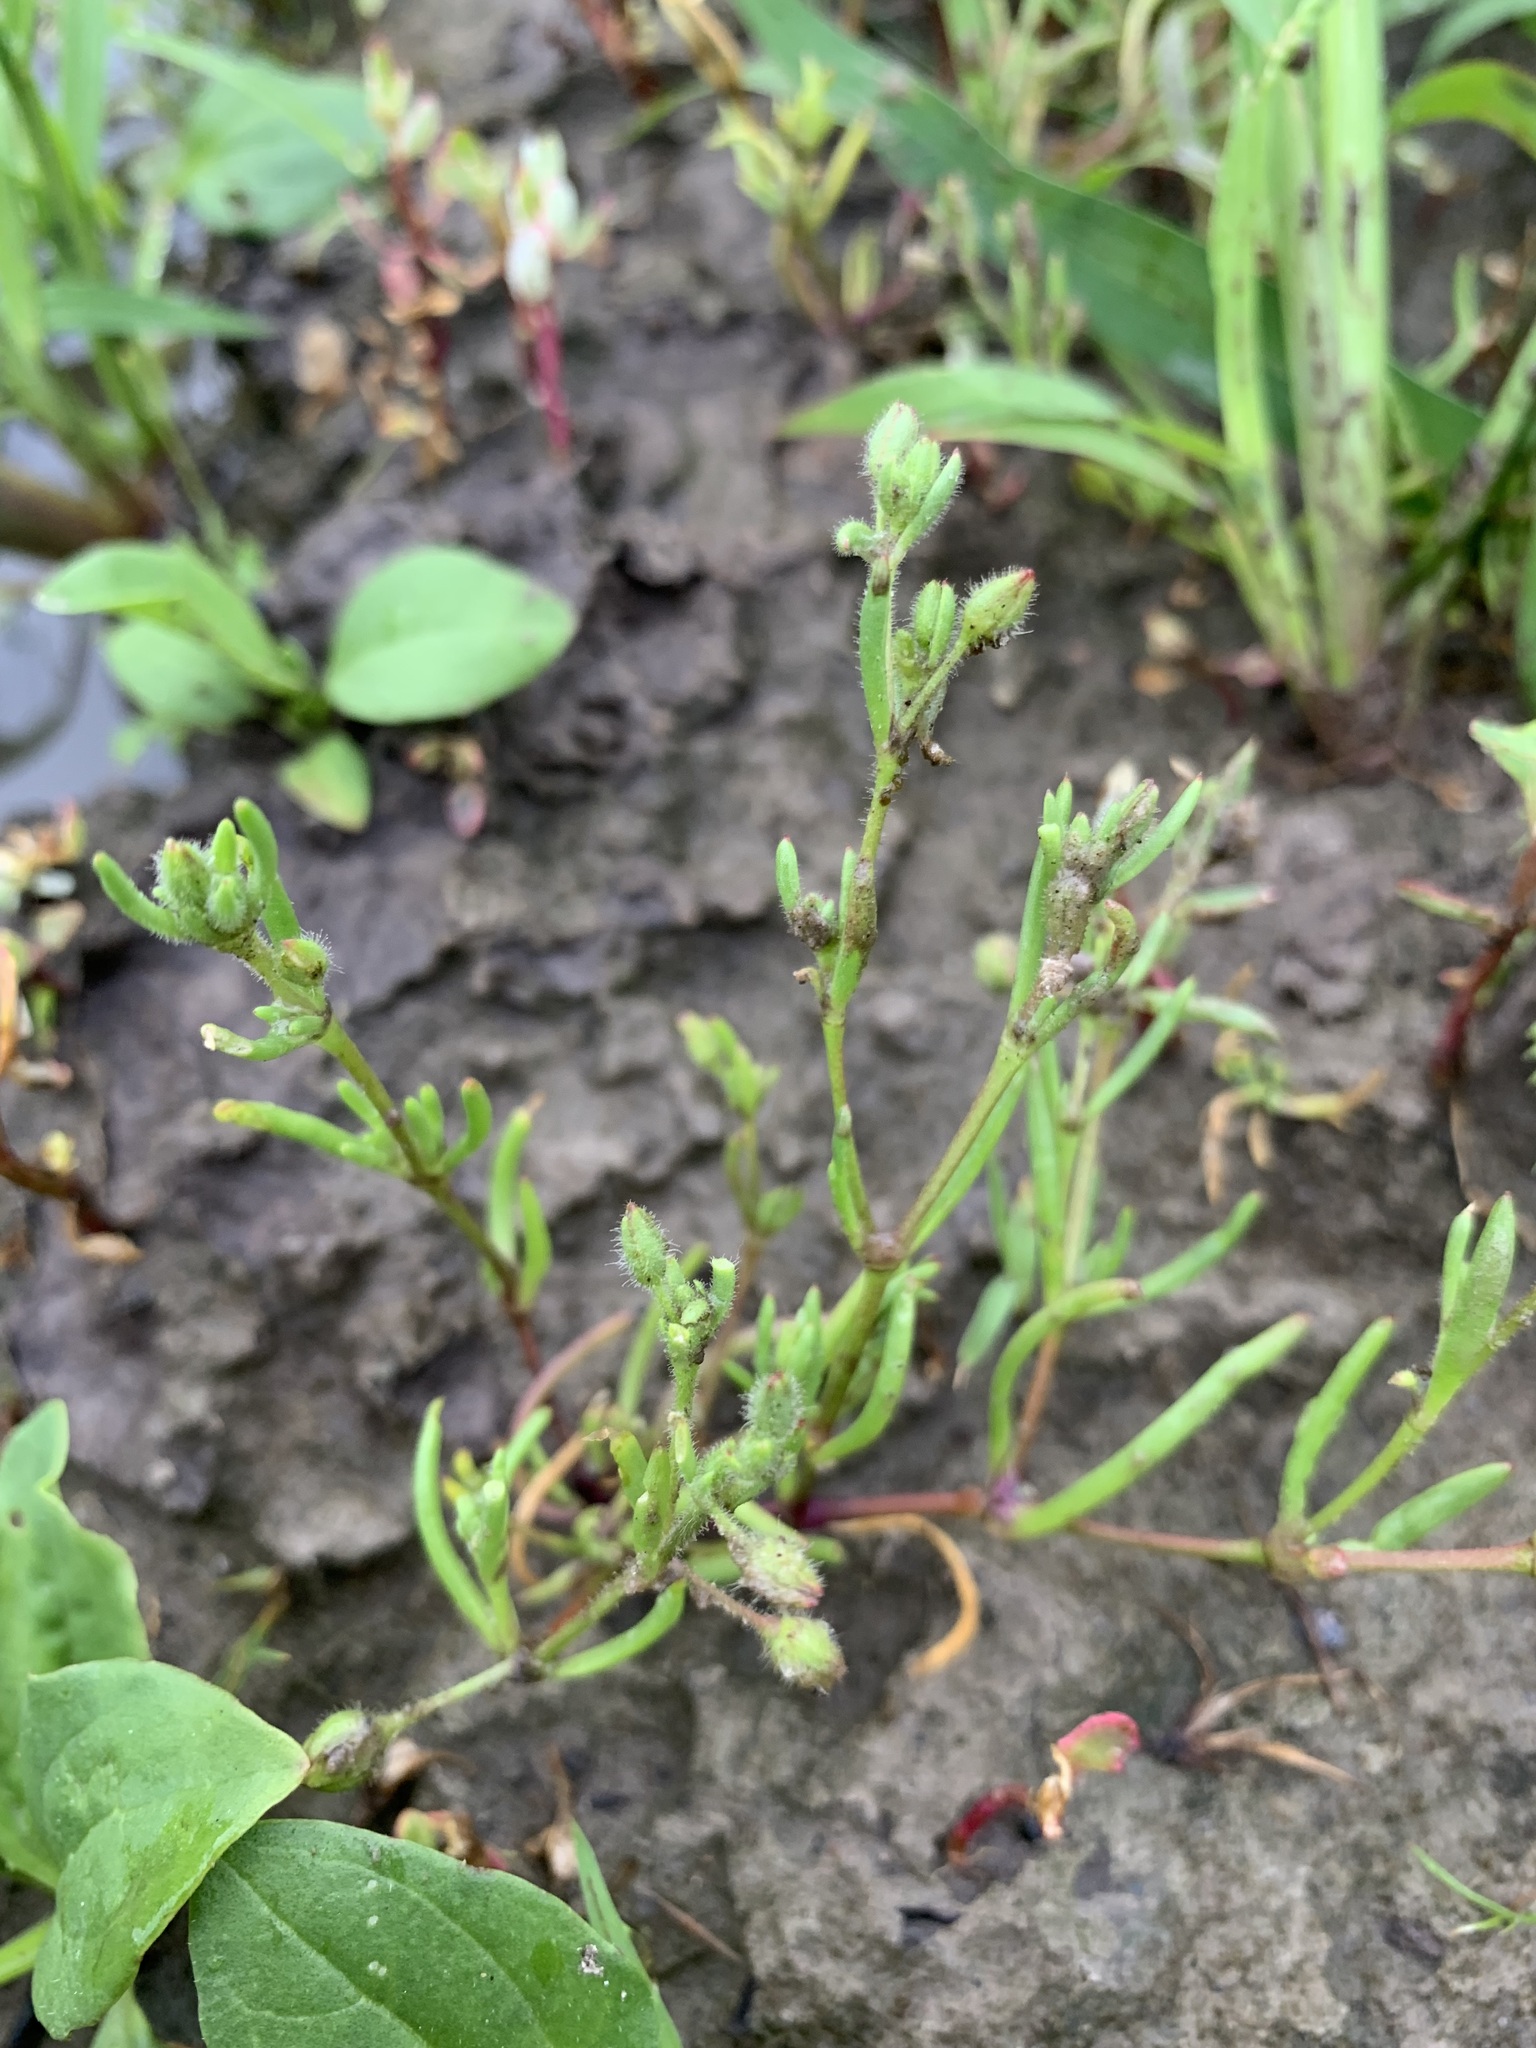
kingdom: Plantae
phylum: Tracheophyta
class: Magnoliopsida
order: Caryophyllales
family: Caryophyllaceae
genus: Spergularia
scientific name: Spergularia marina
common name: Lesser sea-spurrey
